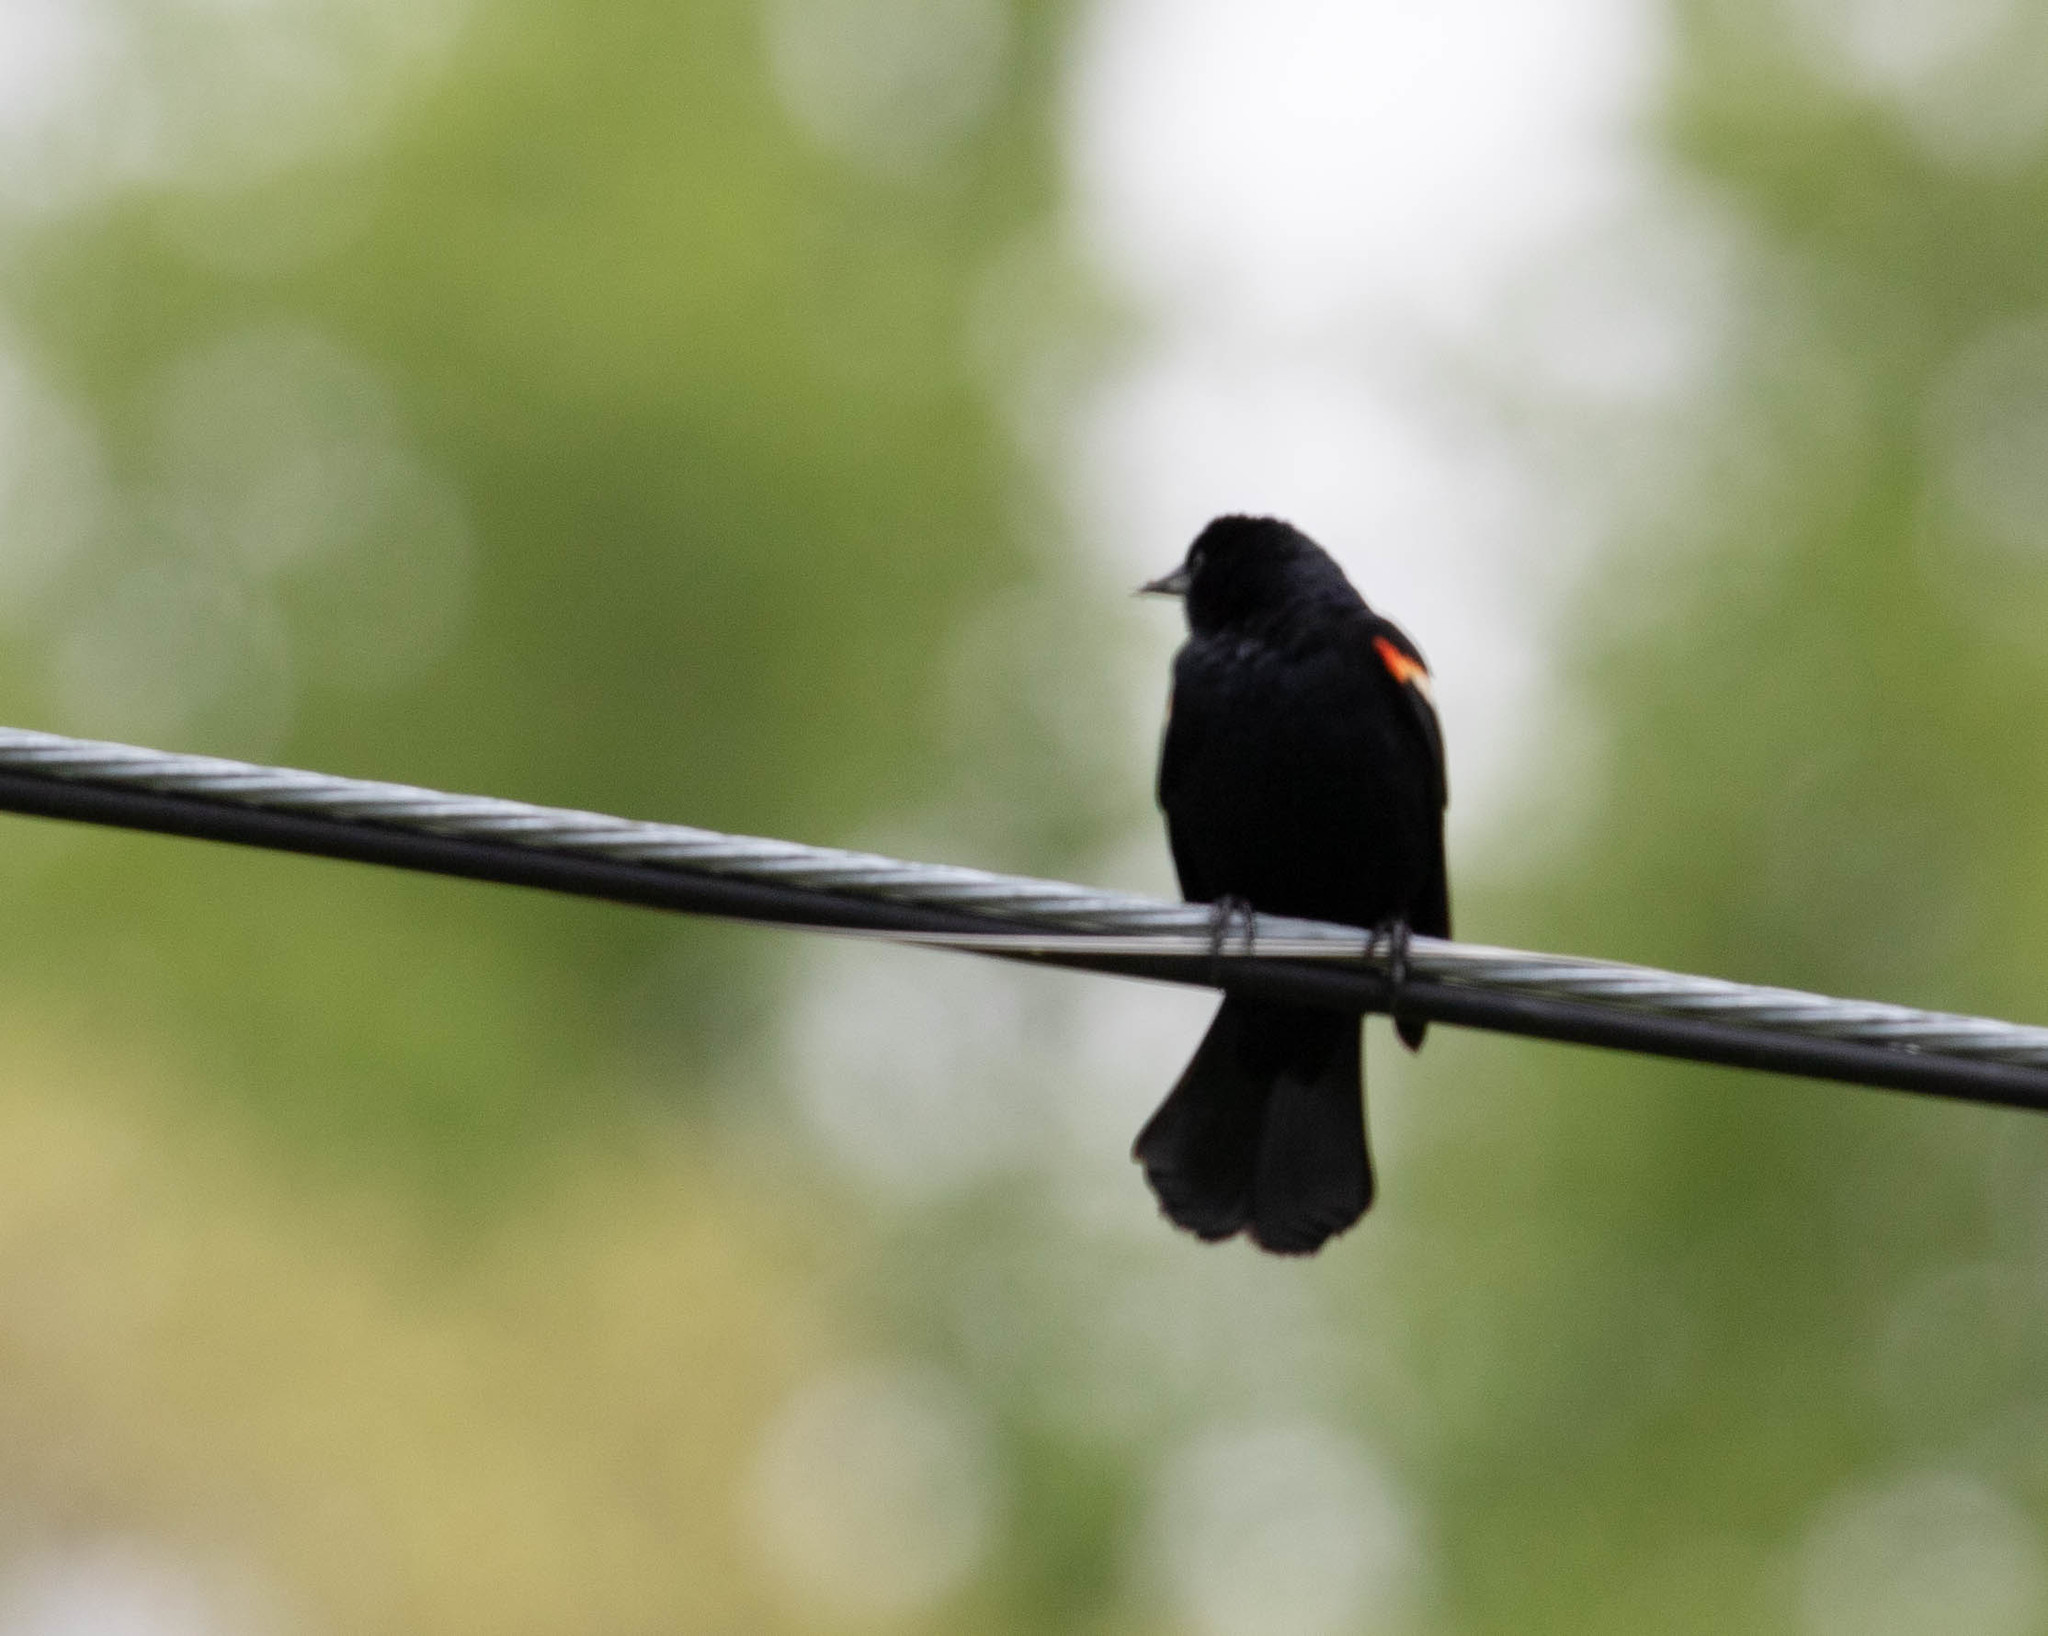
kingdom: Animalia
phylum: Chordata
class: Aves
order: Passeriformes
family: Icteridae
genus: Agelaius
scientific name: Agelaius phoeniceus
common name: Red-winged blackbird
